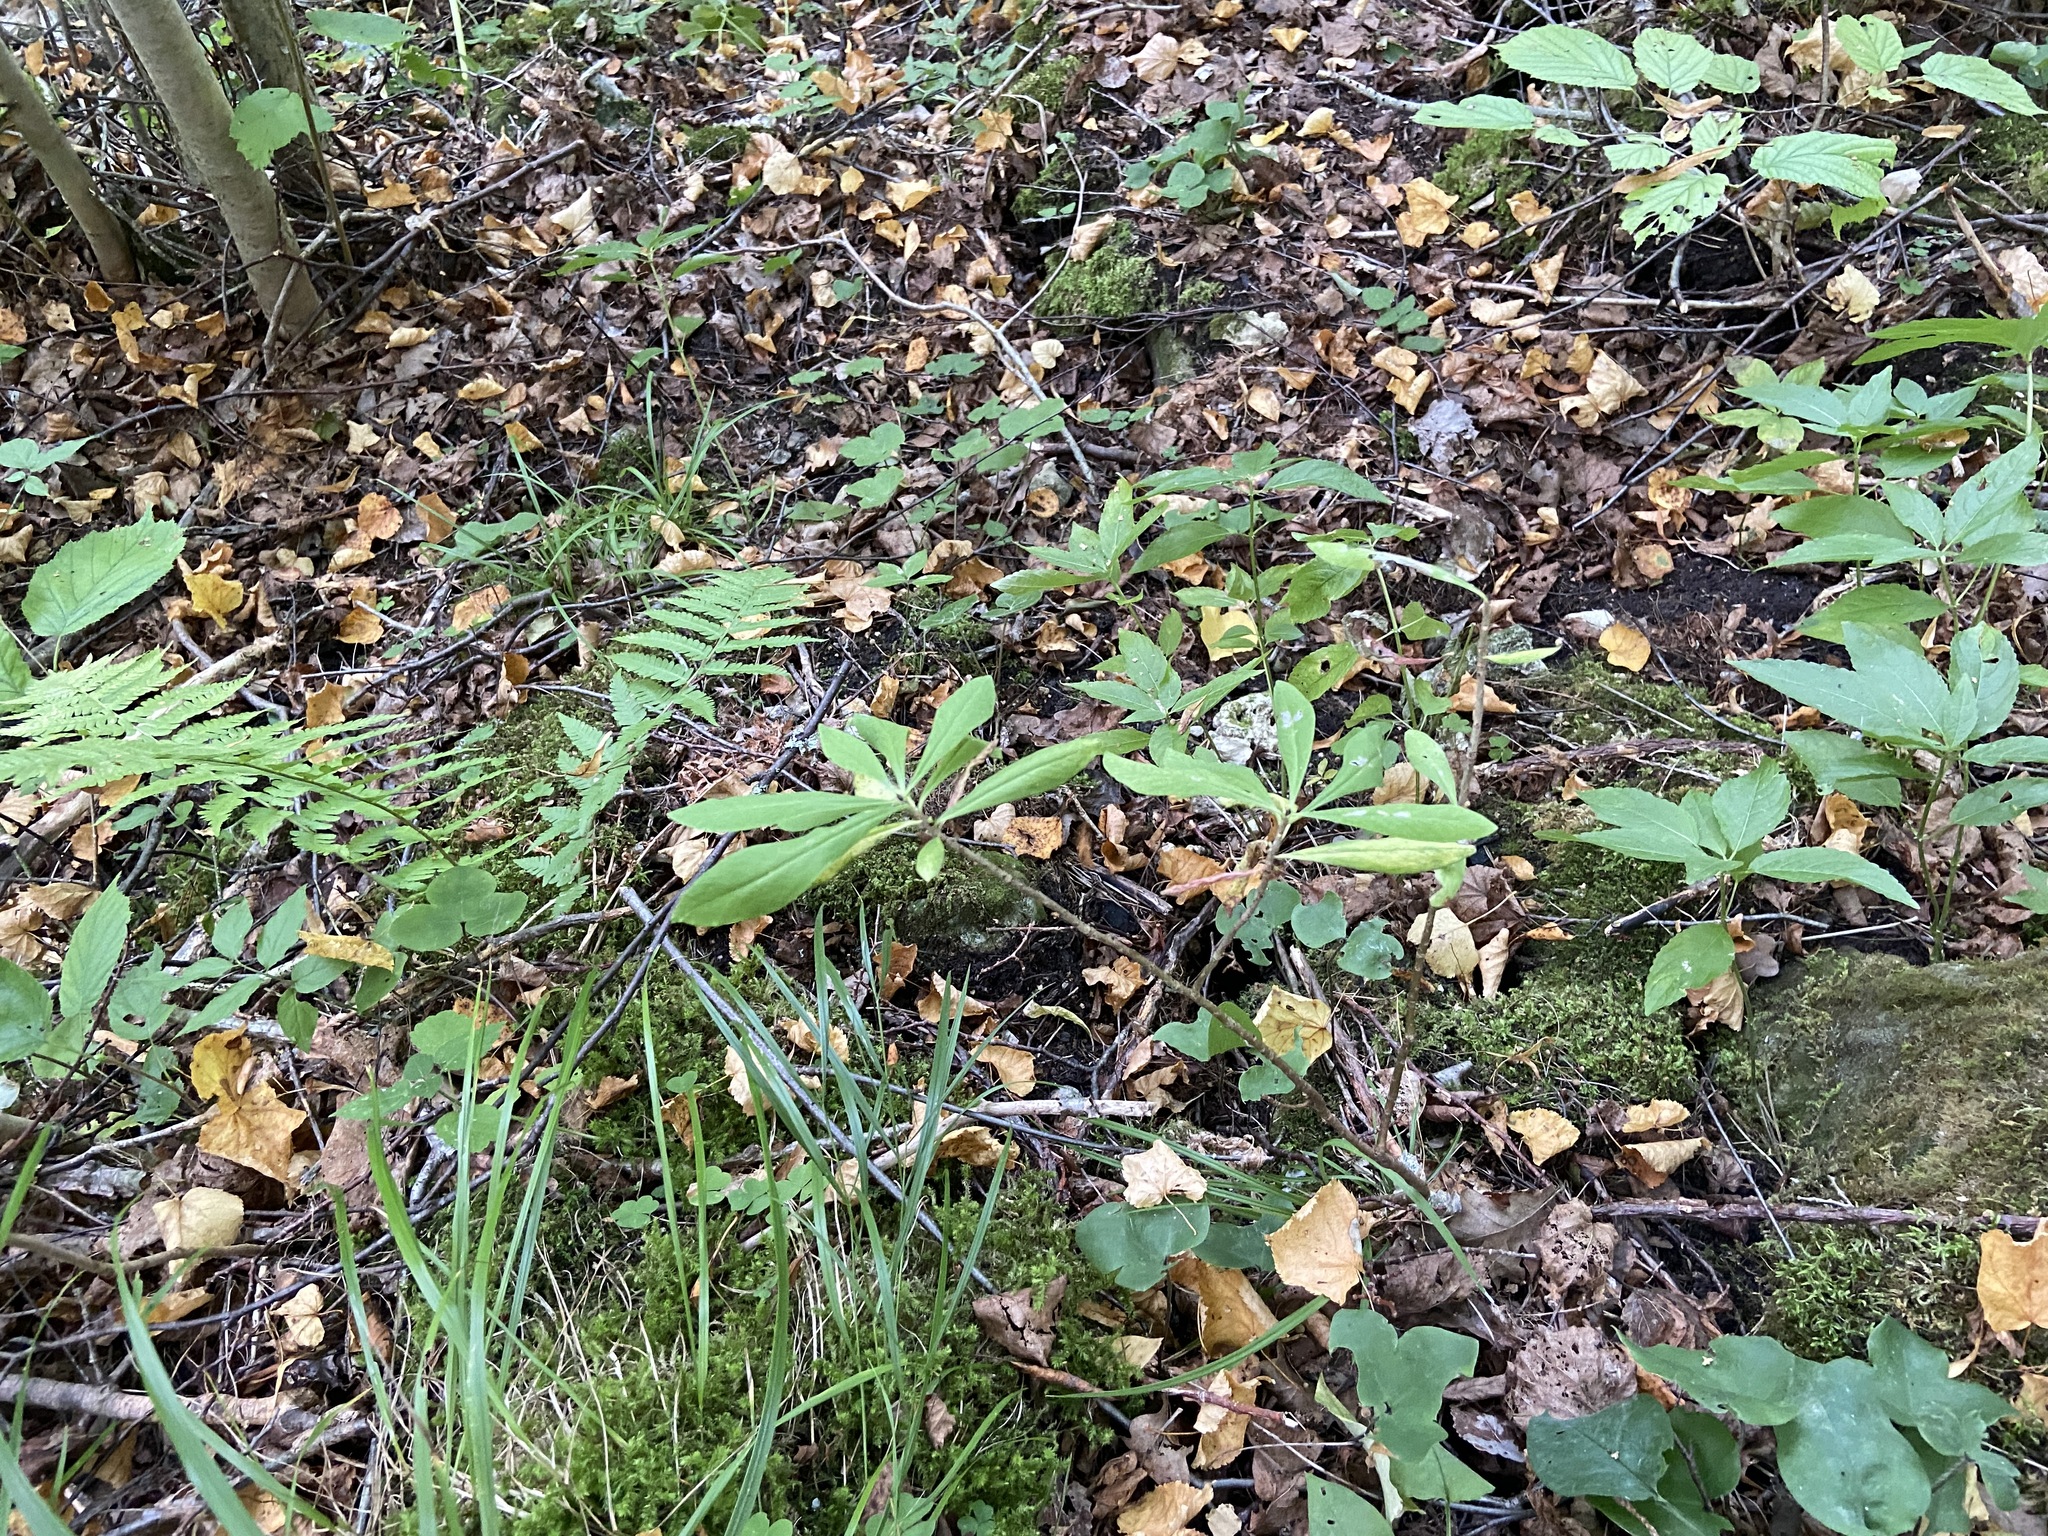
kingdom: Plantae
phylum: Tracheophyta
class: Magnoliopsida
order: Malvales
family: Thymelaeaceae
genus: Daphne
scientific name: Daphne mezereum
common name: Mezereon
